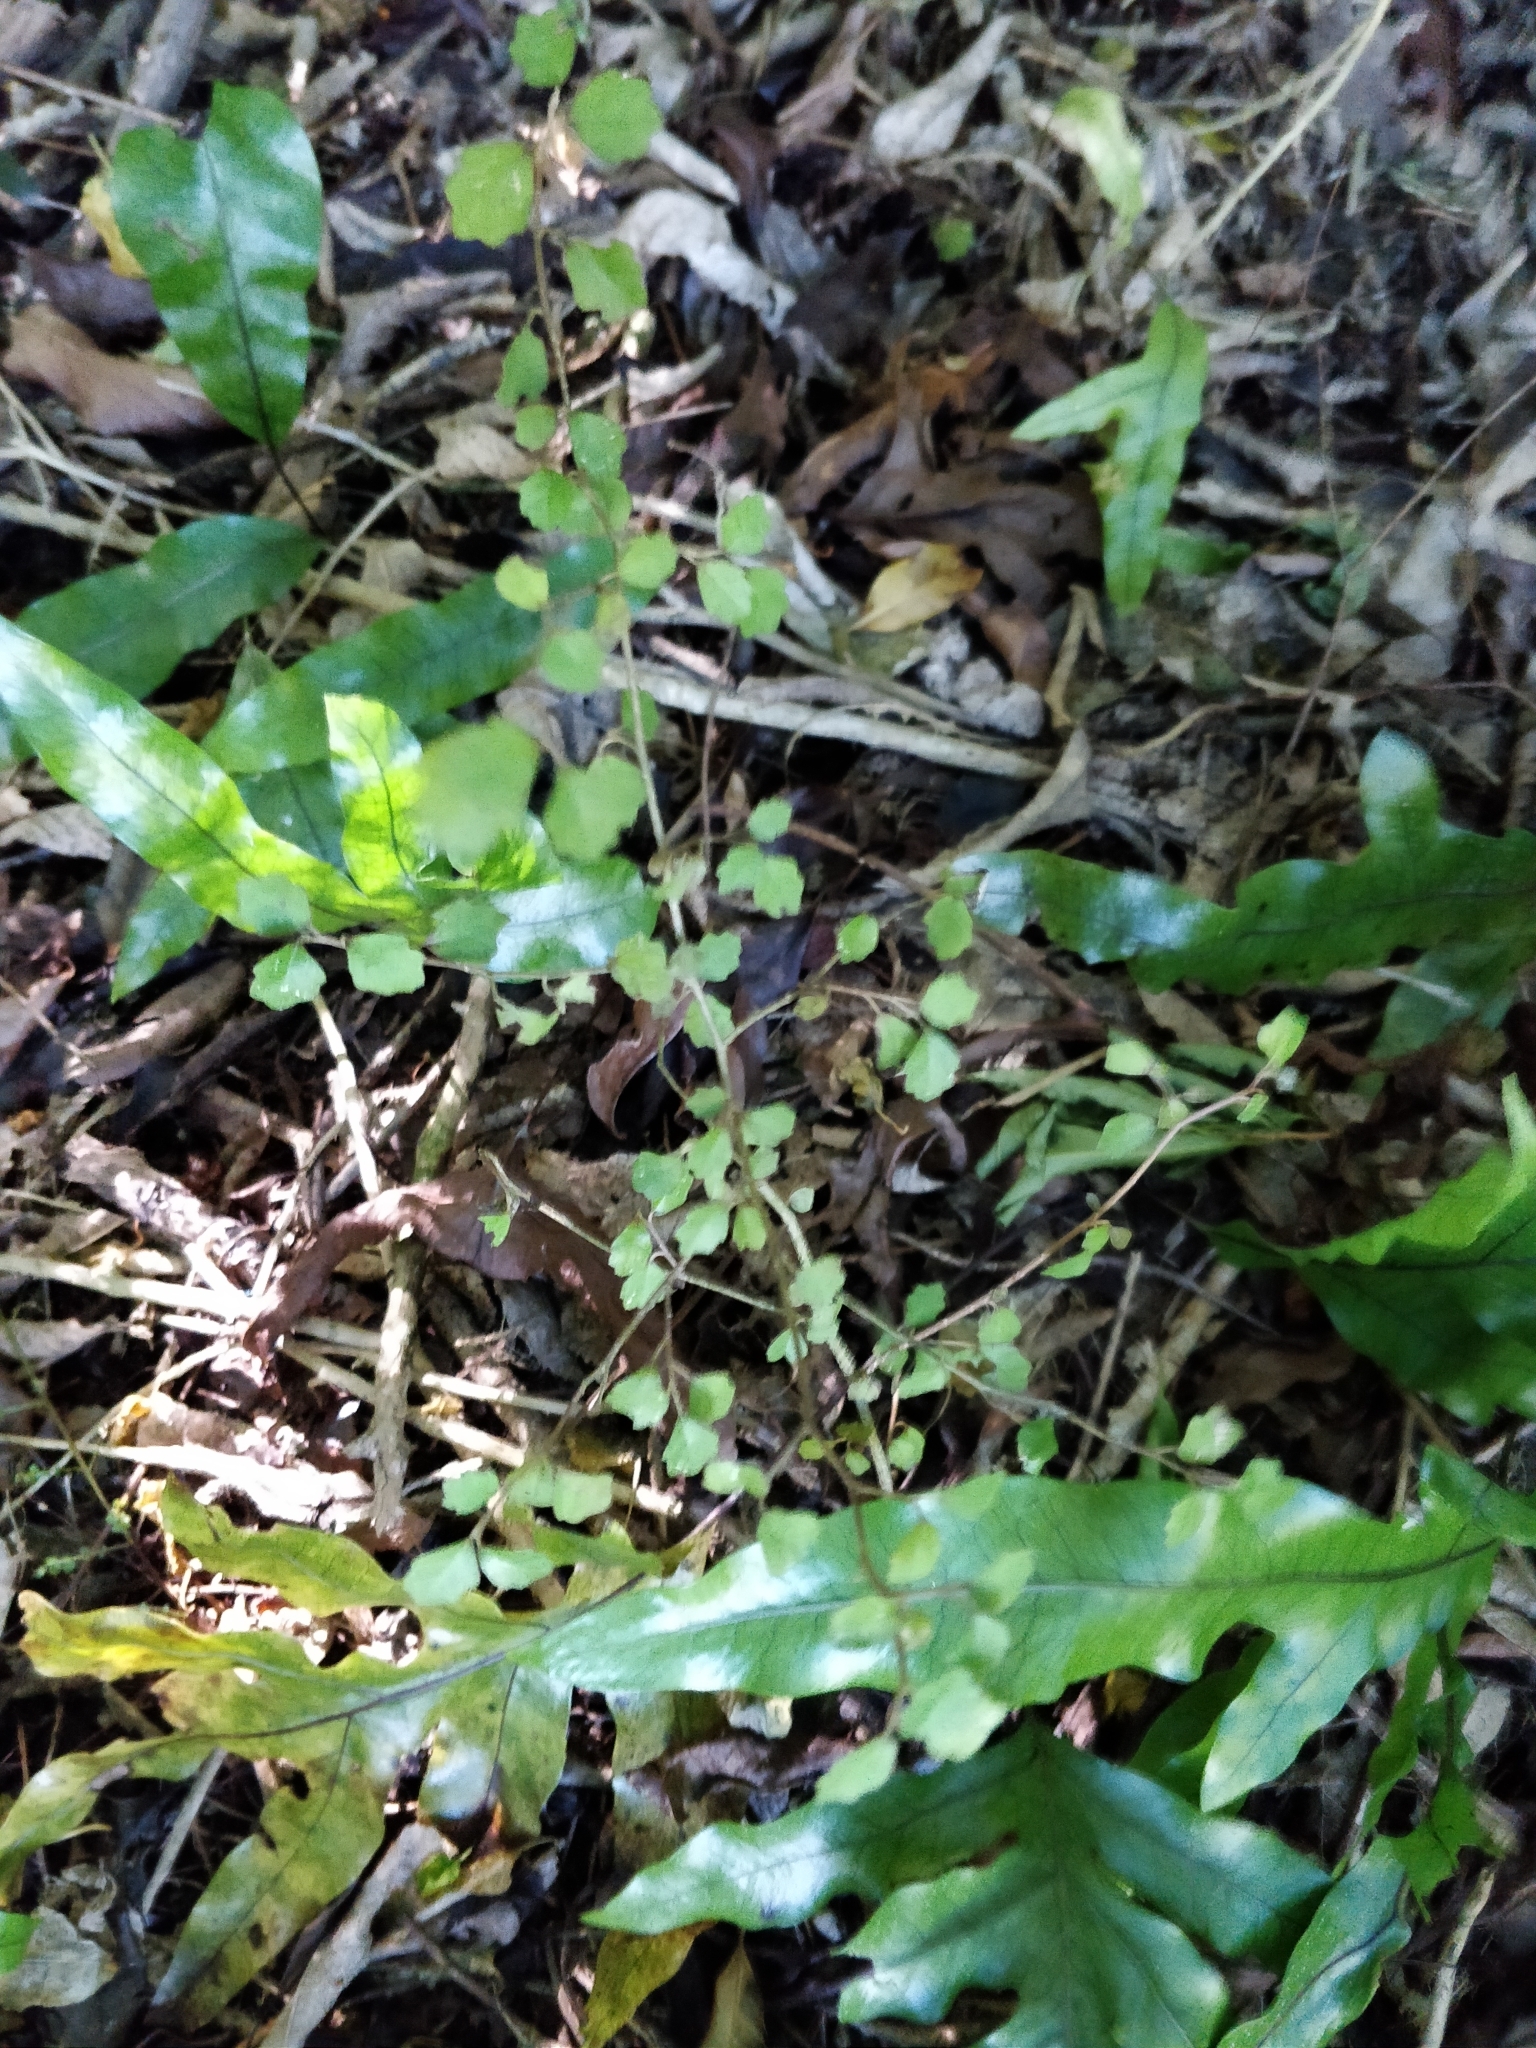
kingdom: Plantae
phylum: Tracheophyta
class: Magnoliopsida
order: Apiales
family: Pennantiaceae
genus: Pennantia
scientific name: Pennantia corymbosa
